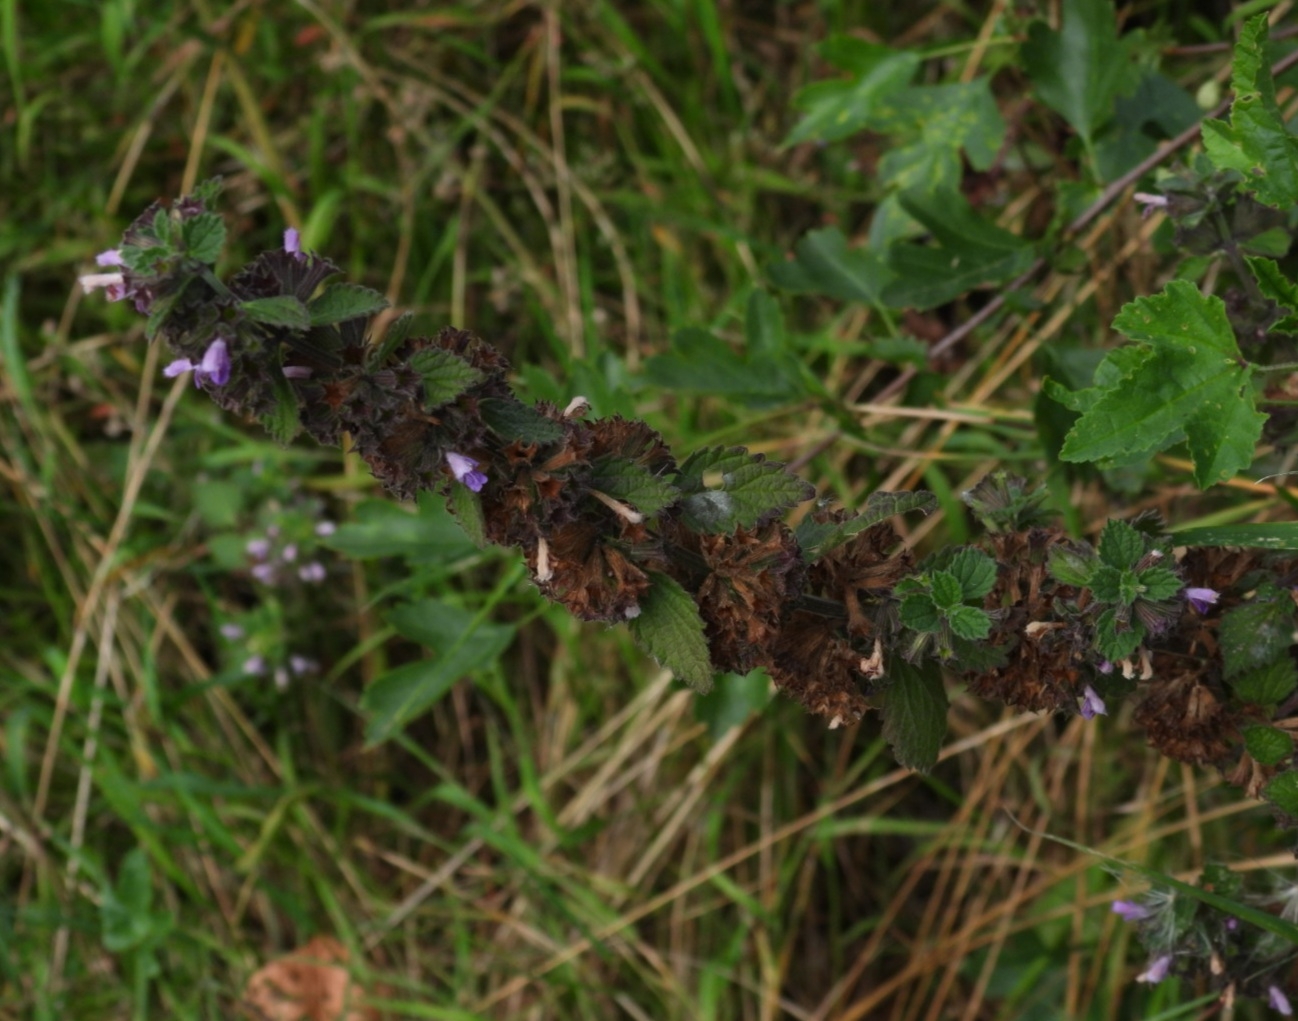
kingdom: Plantae
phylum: Tracheophyta
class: Magnoliopsida
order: Lamiales
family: Lamiaceae
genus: Ballota
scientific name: Ballota nigra
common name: Black horehound
